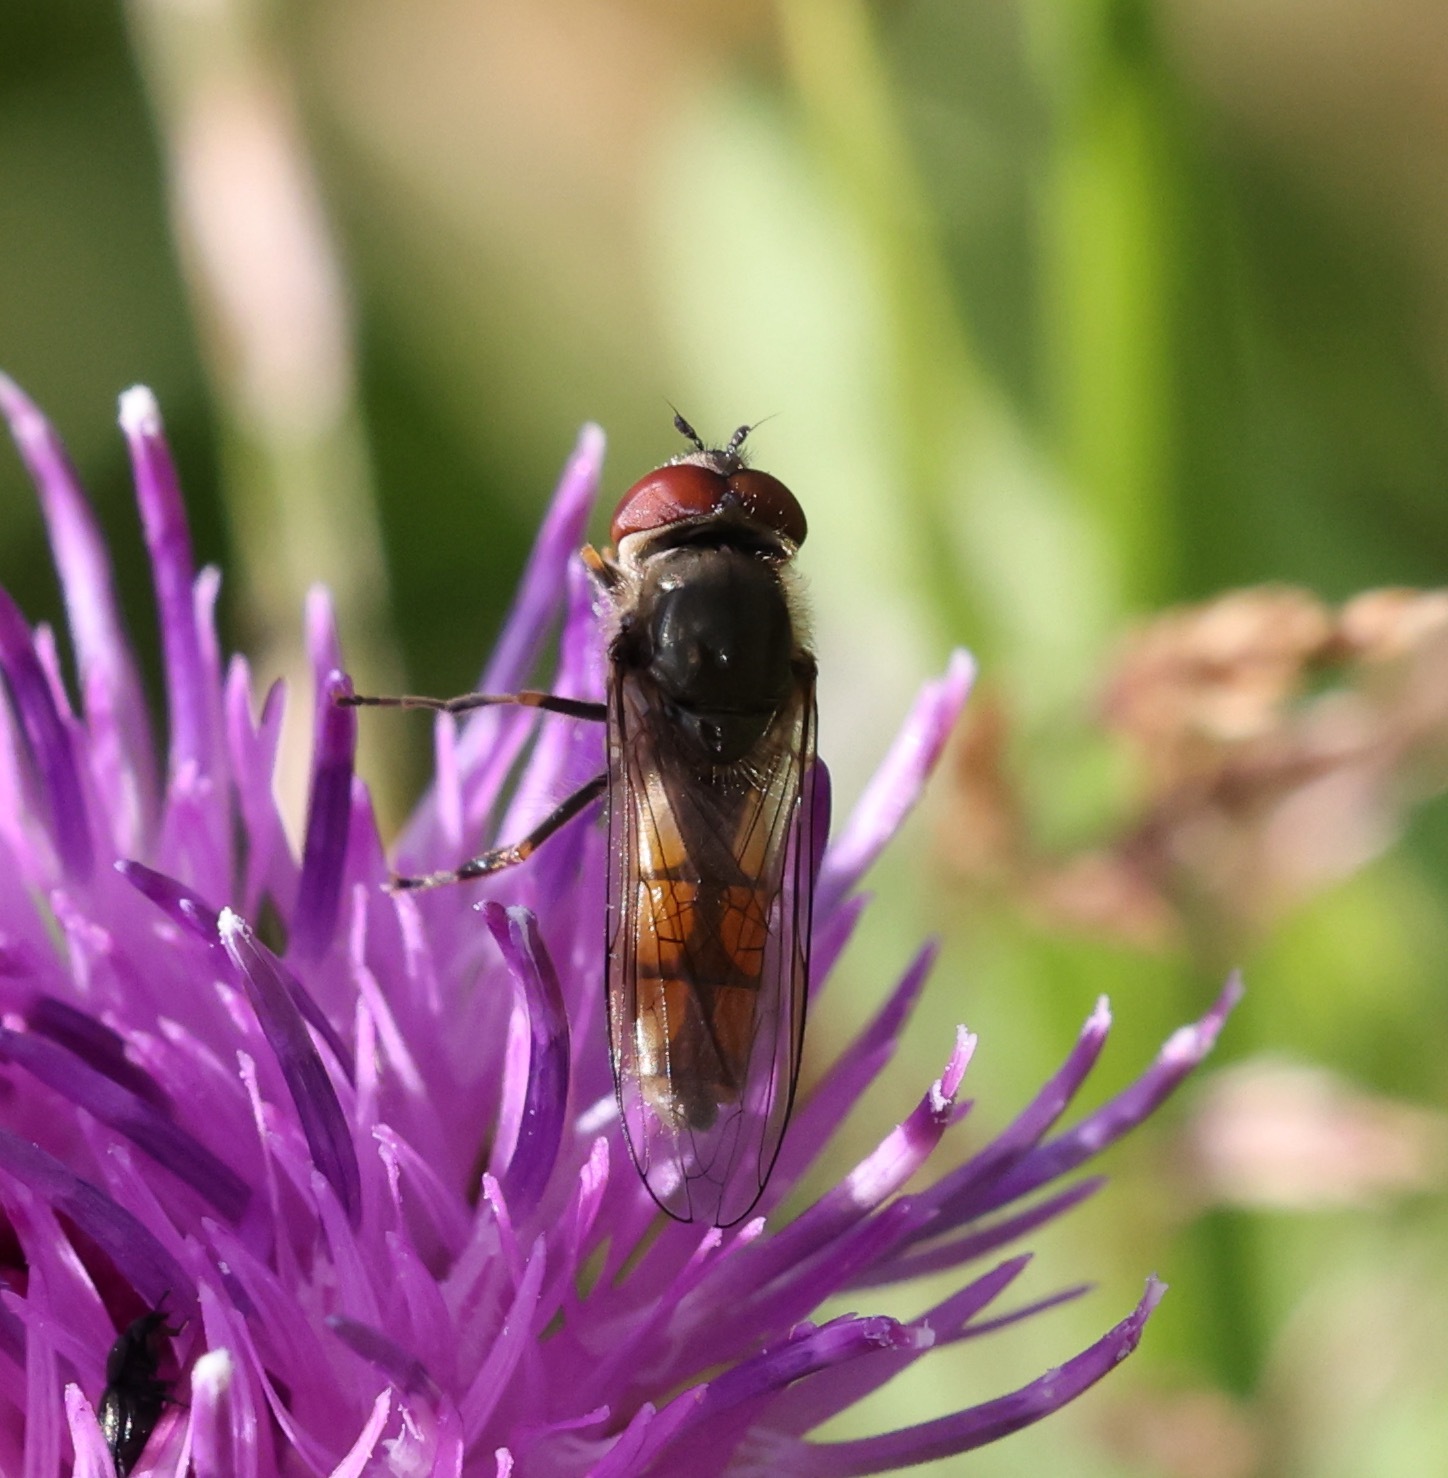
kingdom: Animalia
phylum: Arthropoda
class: Insecta
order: Diptera
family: Syrphidae
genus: Platycheirus
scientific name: Platycheirus manicatus
